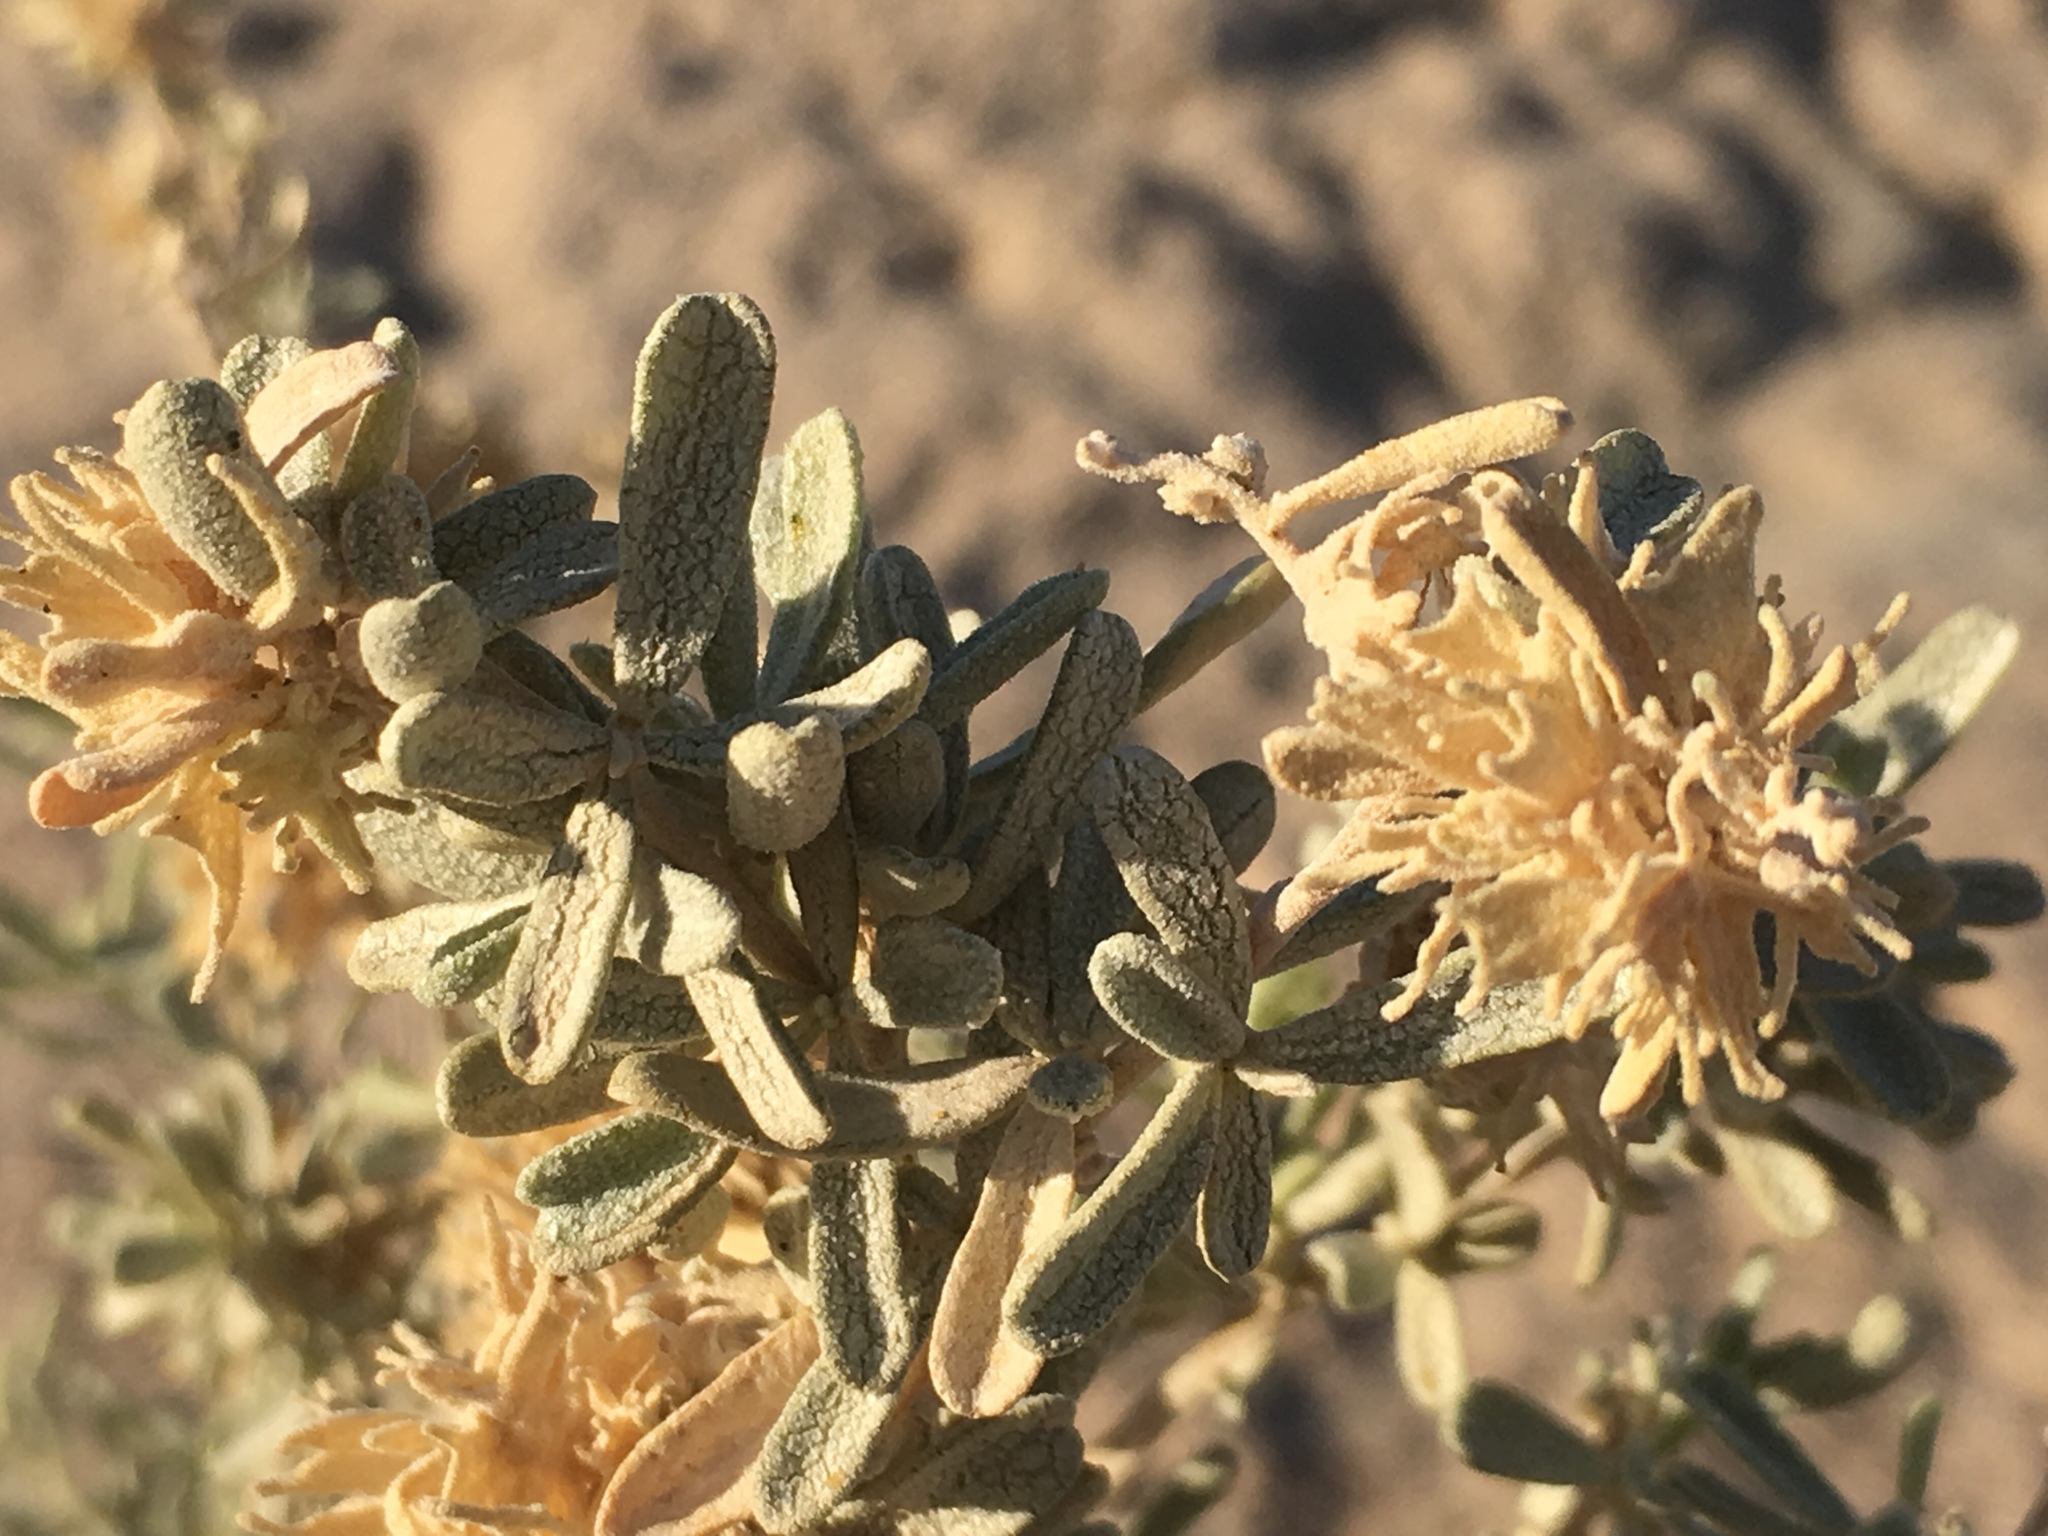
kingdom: Plantae
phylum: Tracheophyta
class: Magnoliopsida
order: Caryophyllales
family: Amaranthaceae
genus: Atriplex
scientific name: Atriplex canescens
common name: Four-wing saltbush
